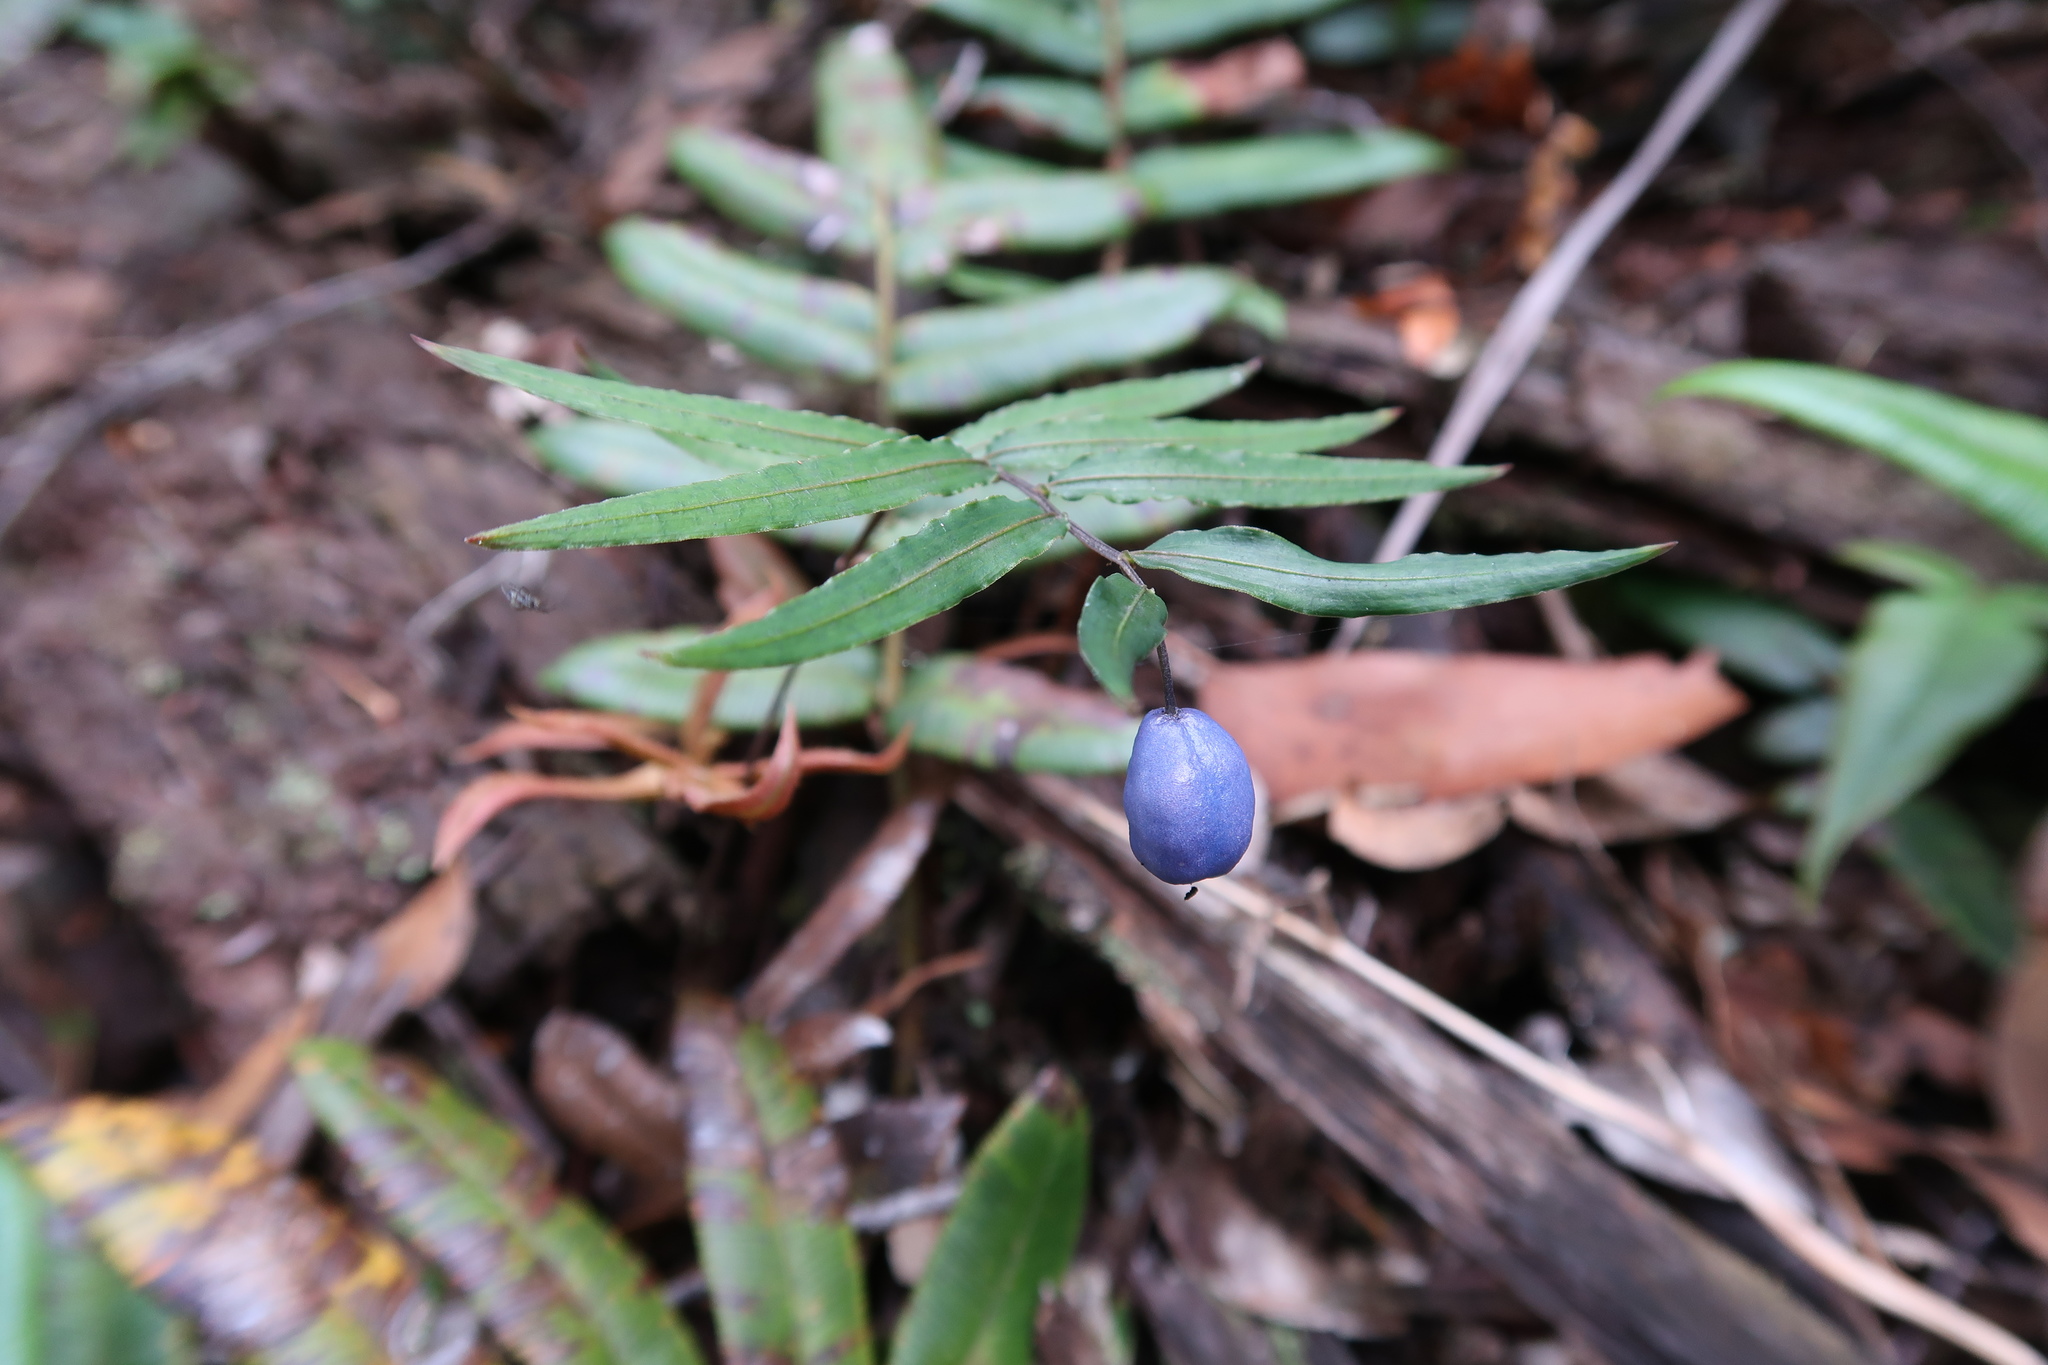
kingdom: Plantae
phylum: Tracheophyta
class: Liliopsida
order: Liliales
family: Alstroemeriaceae
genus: Drymophila
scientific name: Drymophila cyanocarpa
